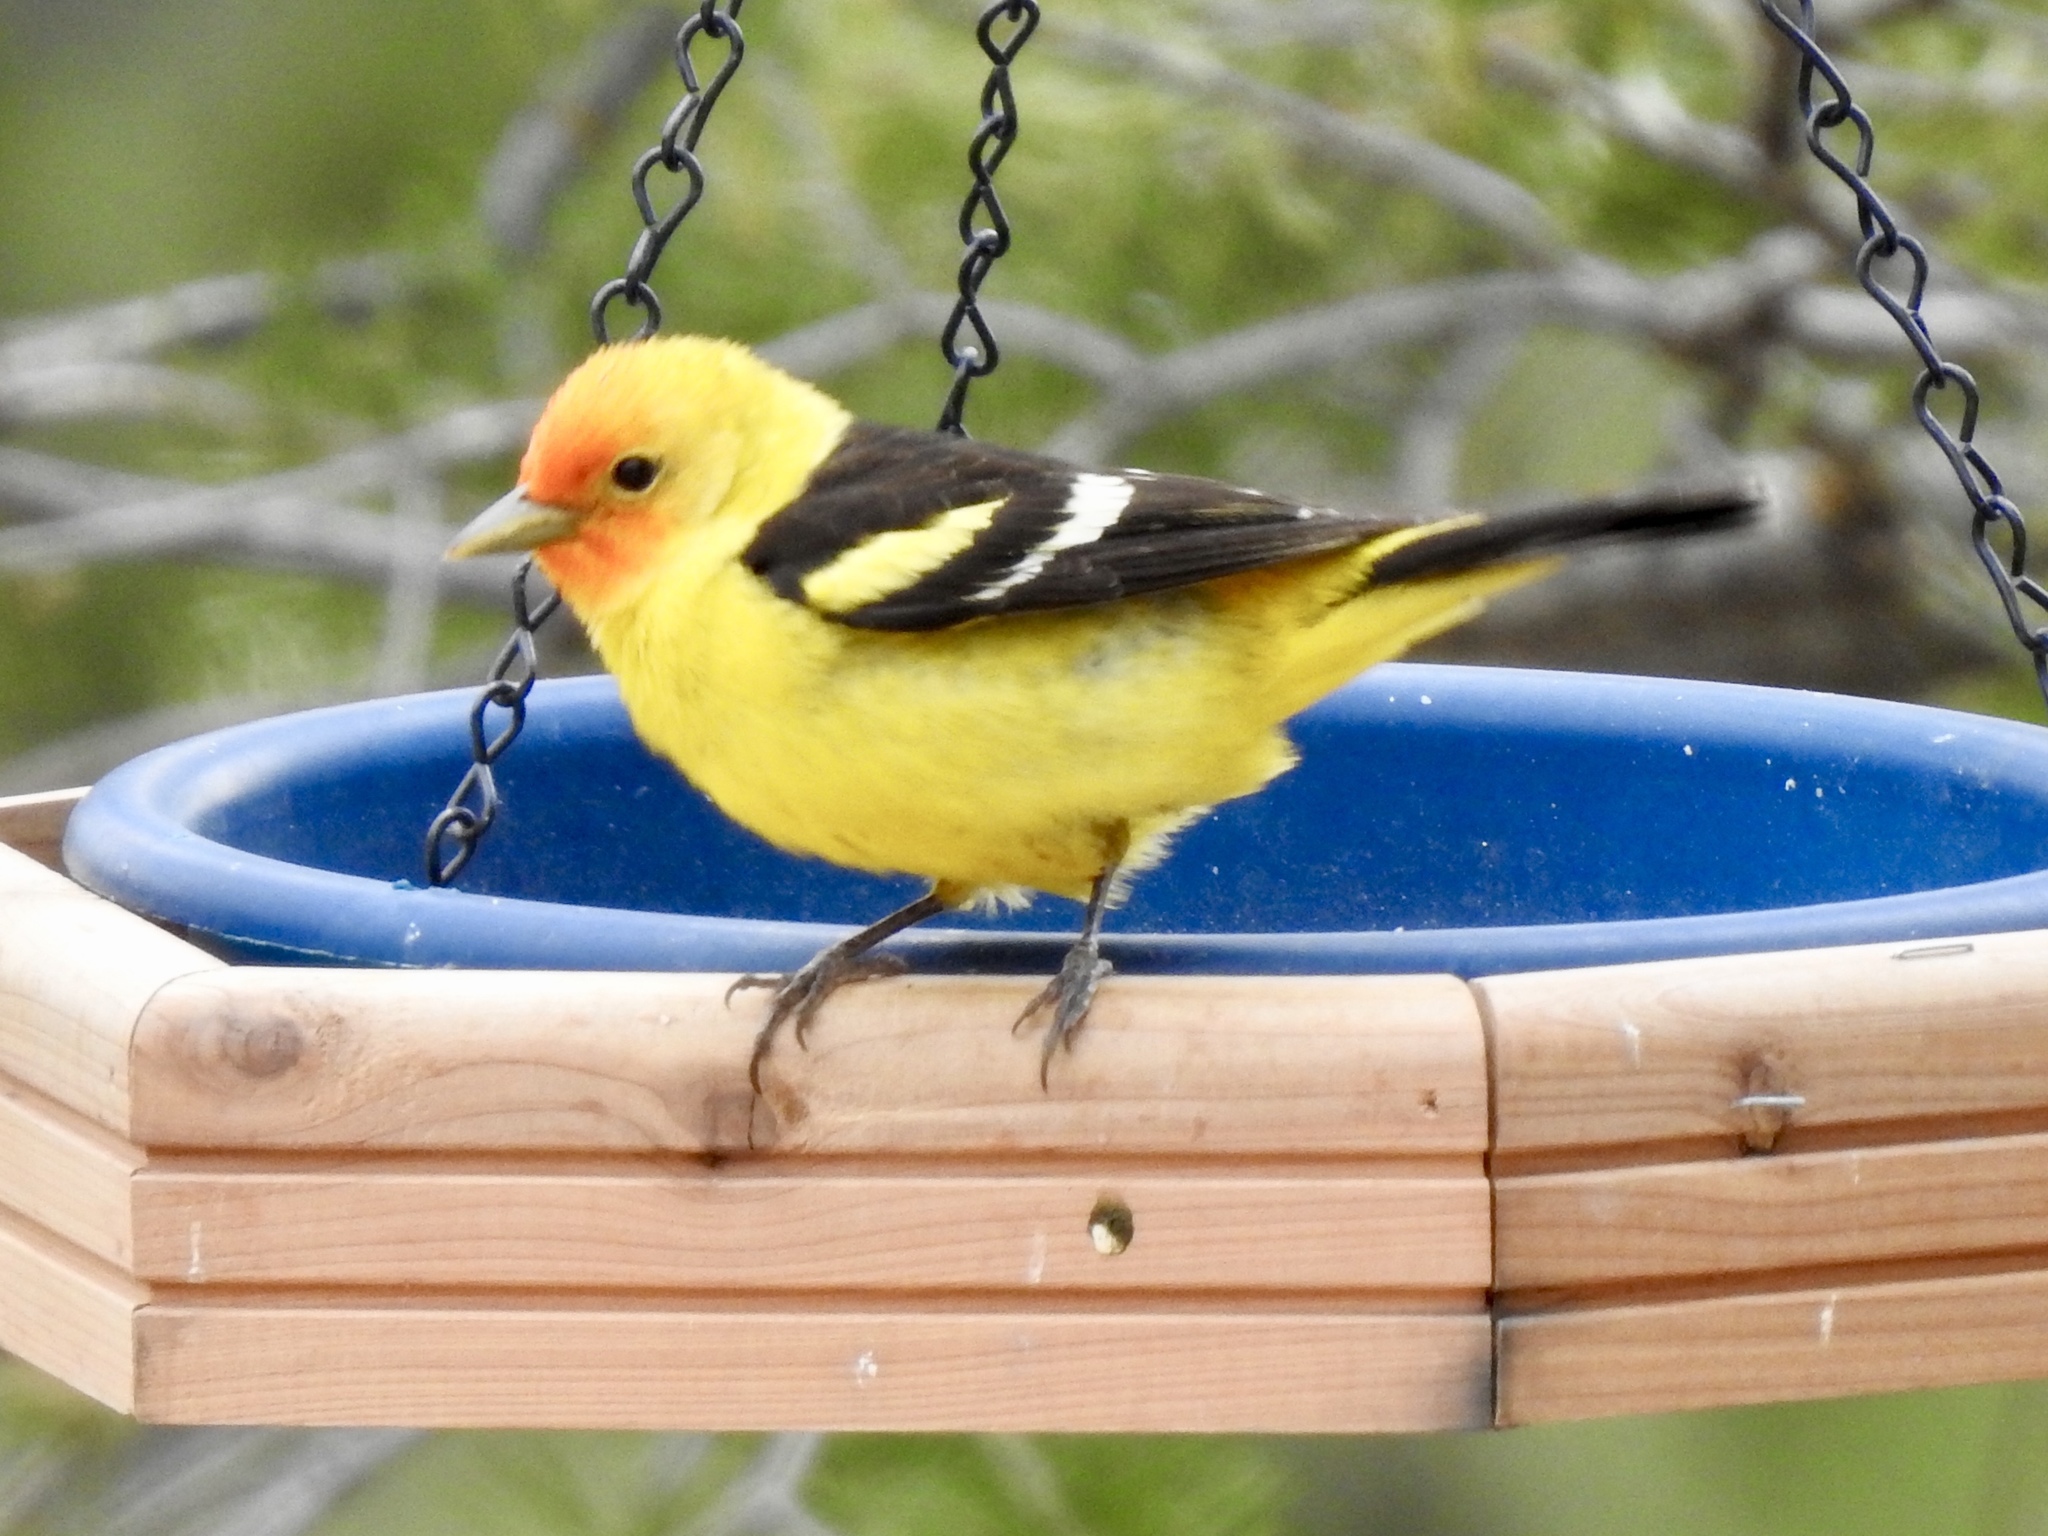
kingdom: Animalia
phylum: Chordata
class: Aves
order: Passeriformes
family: Cardinalidae
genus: Piranga
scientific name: Piranga ludoviciana
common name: Western tanager
